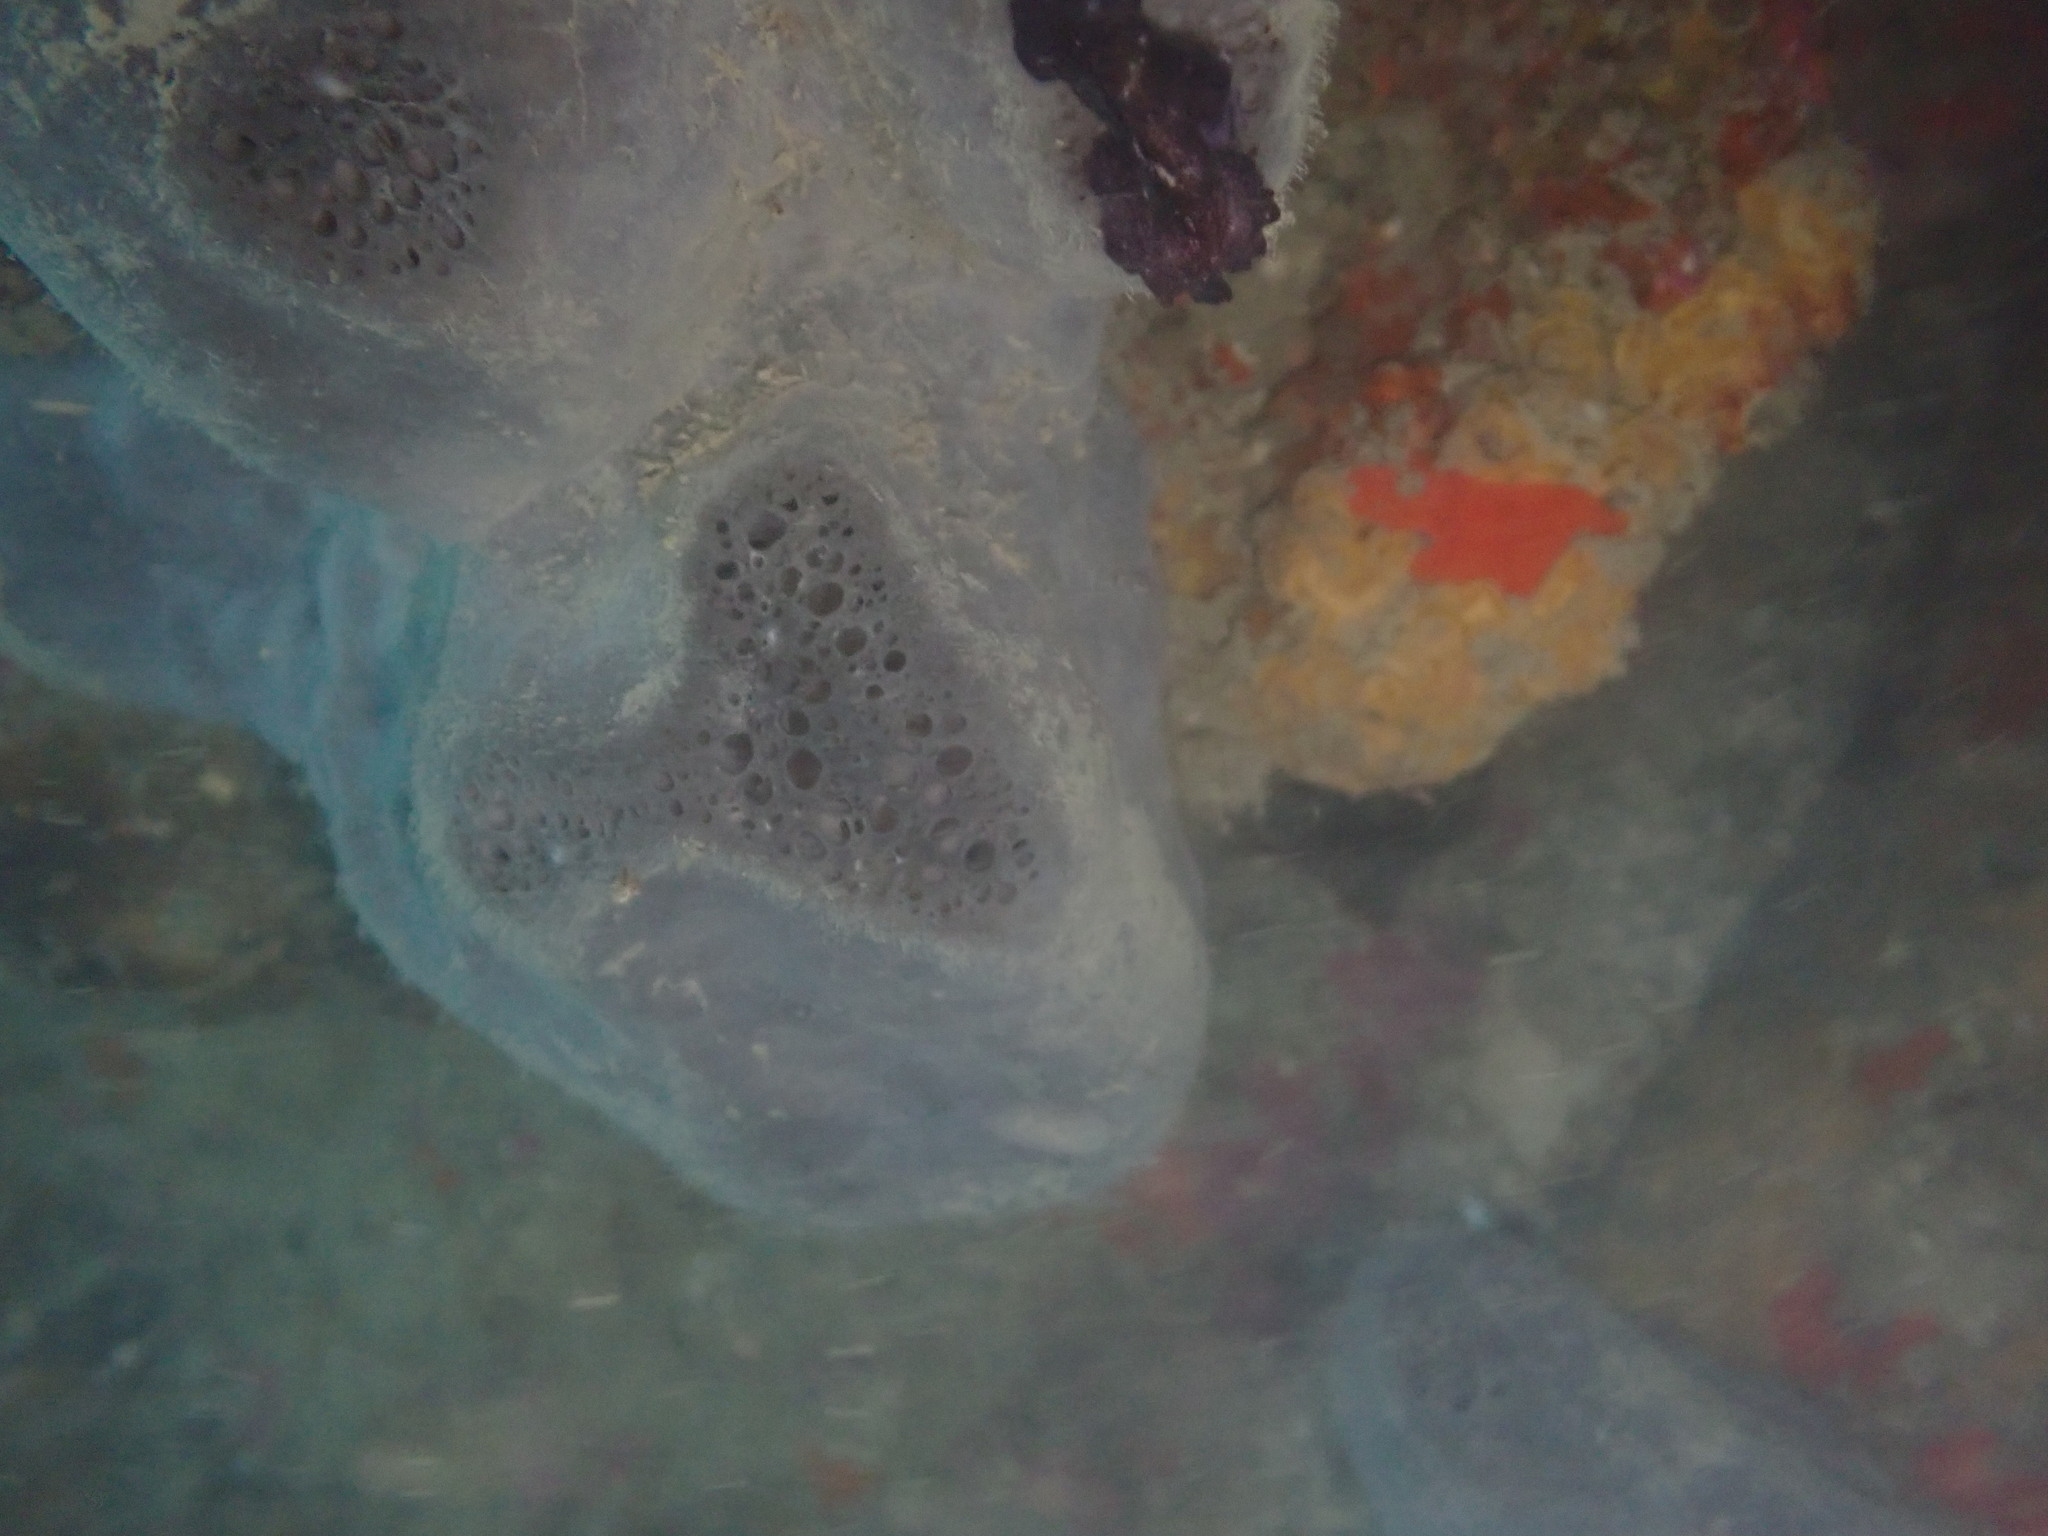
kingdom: Animalia
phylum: Porifera
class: Demospongiae
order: Dictyoceratida
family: Irciniidae
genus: Psammocinia
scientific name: Psammocinia perforodosa
